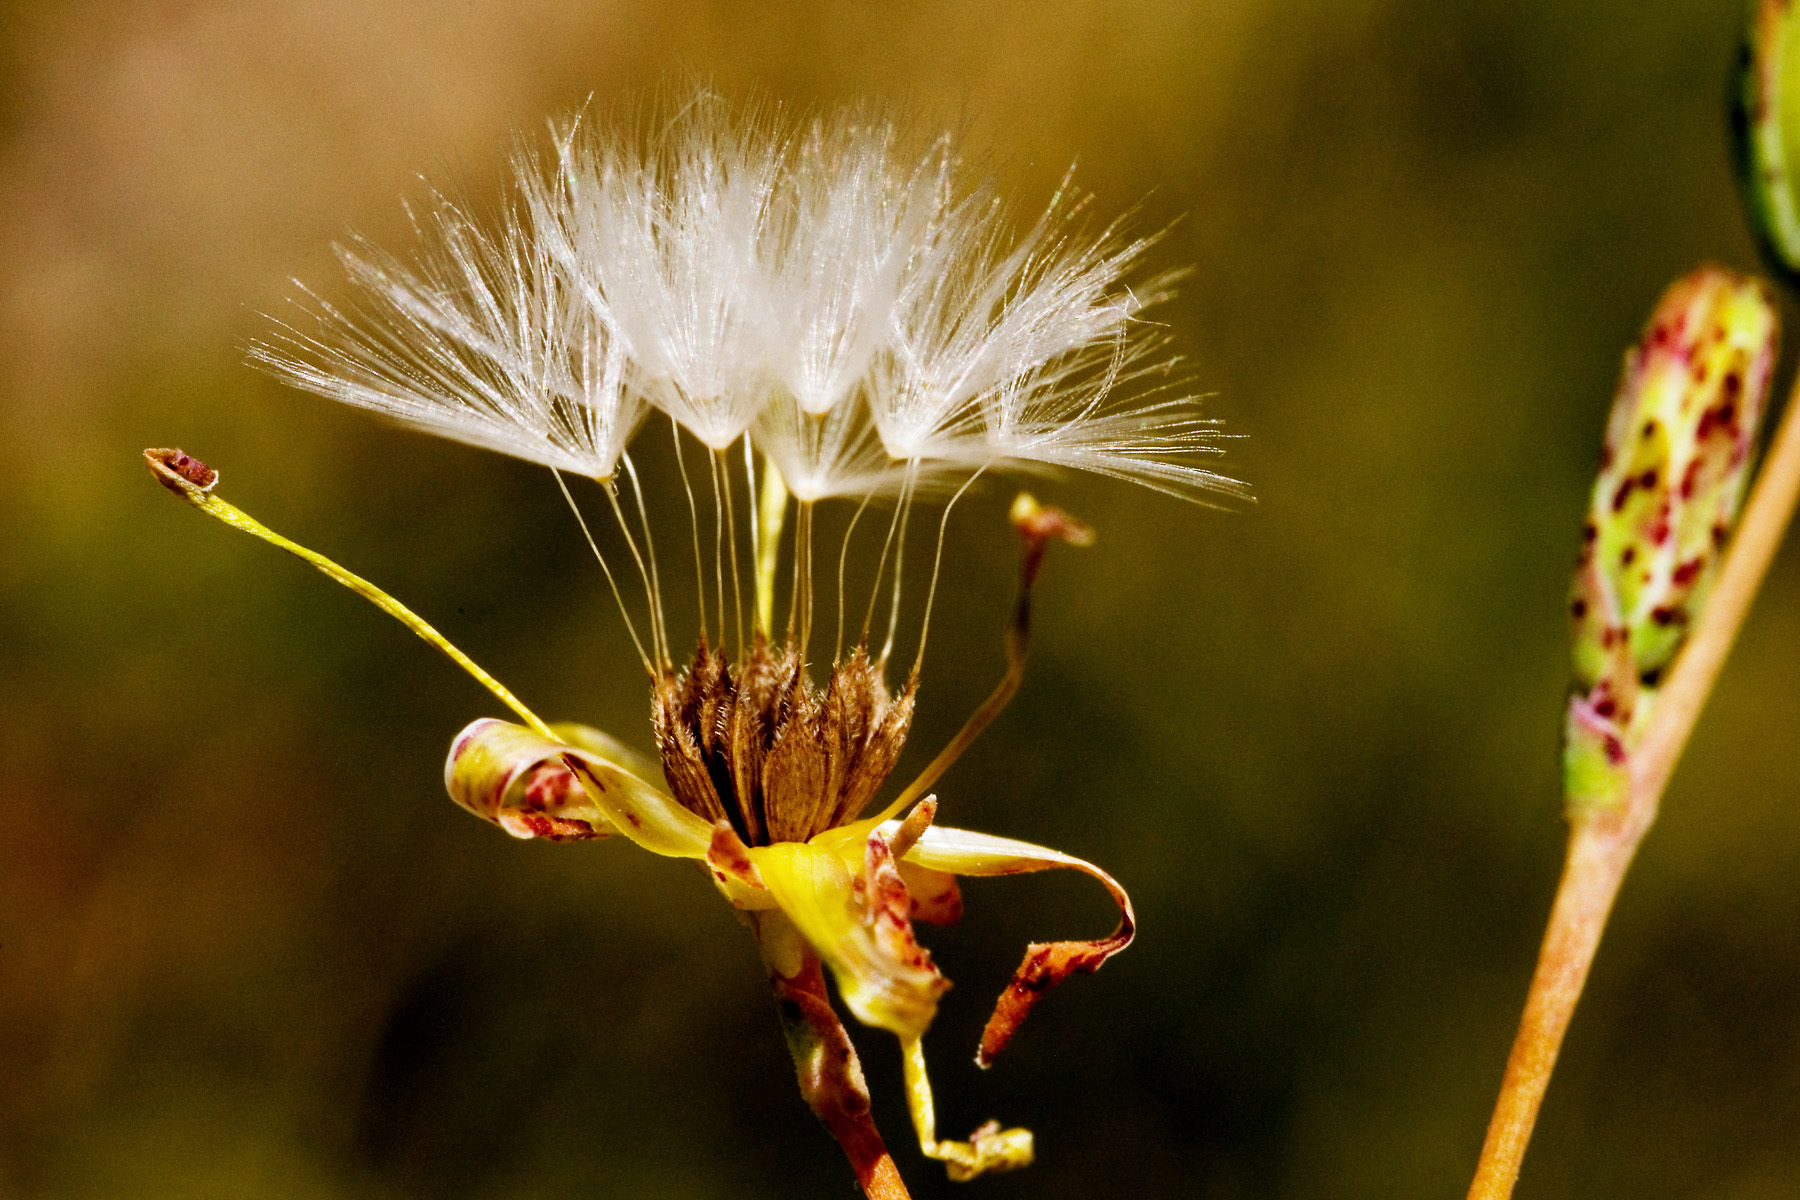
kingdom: Plantae
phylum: Tracheophyta
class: Magnoliopsida
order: Asterales
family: Asteraceae
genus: Lactuca
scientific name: Lactuca serriola
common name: Prickly lettuce
